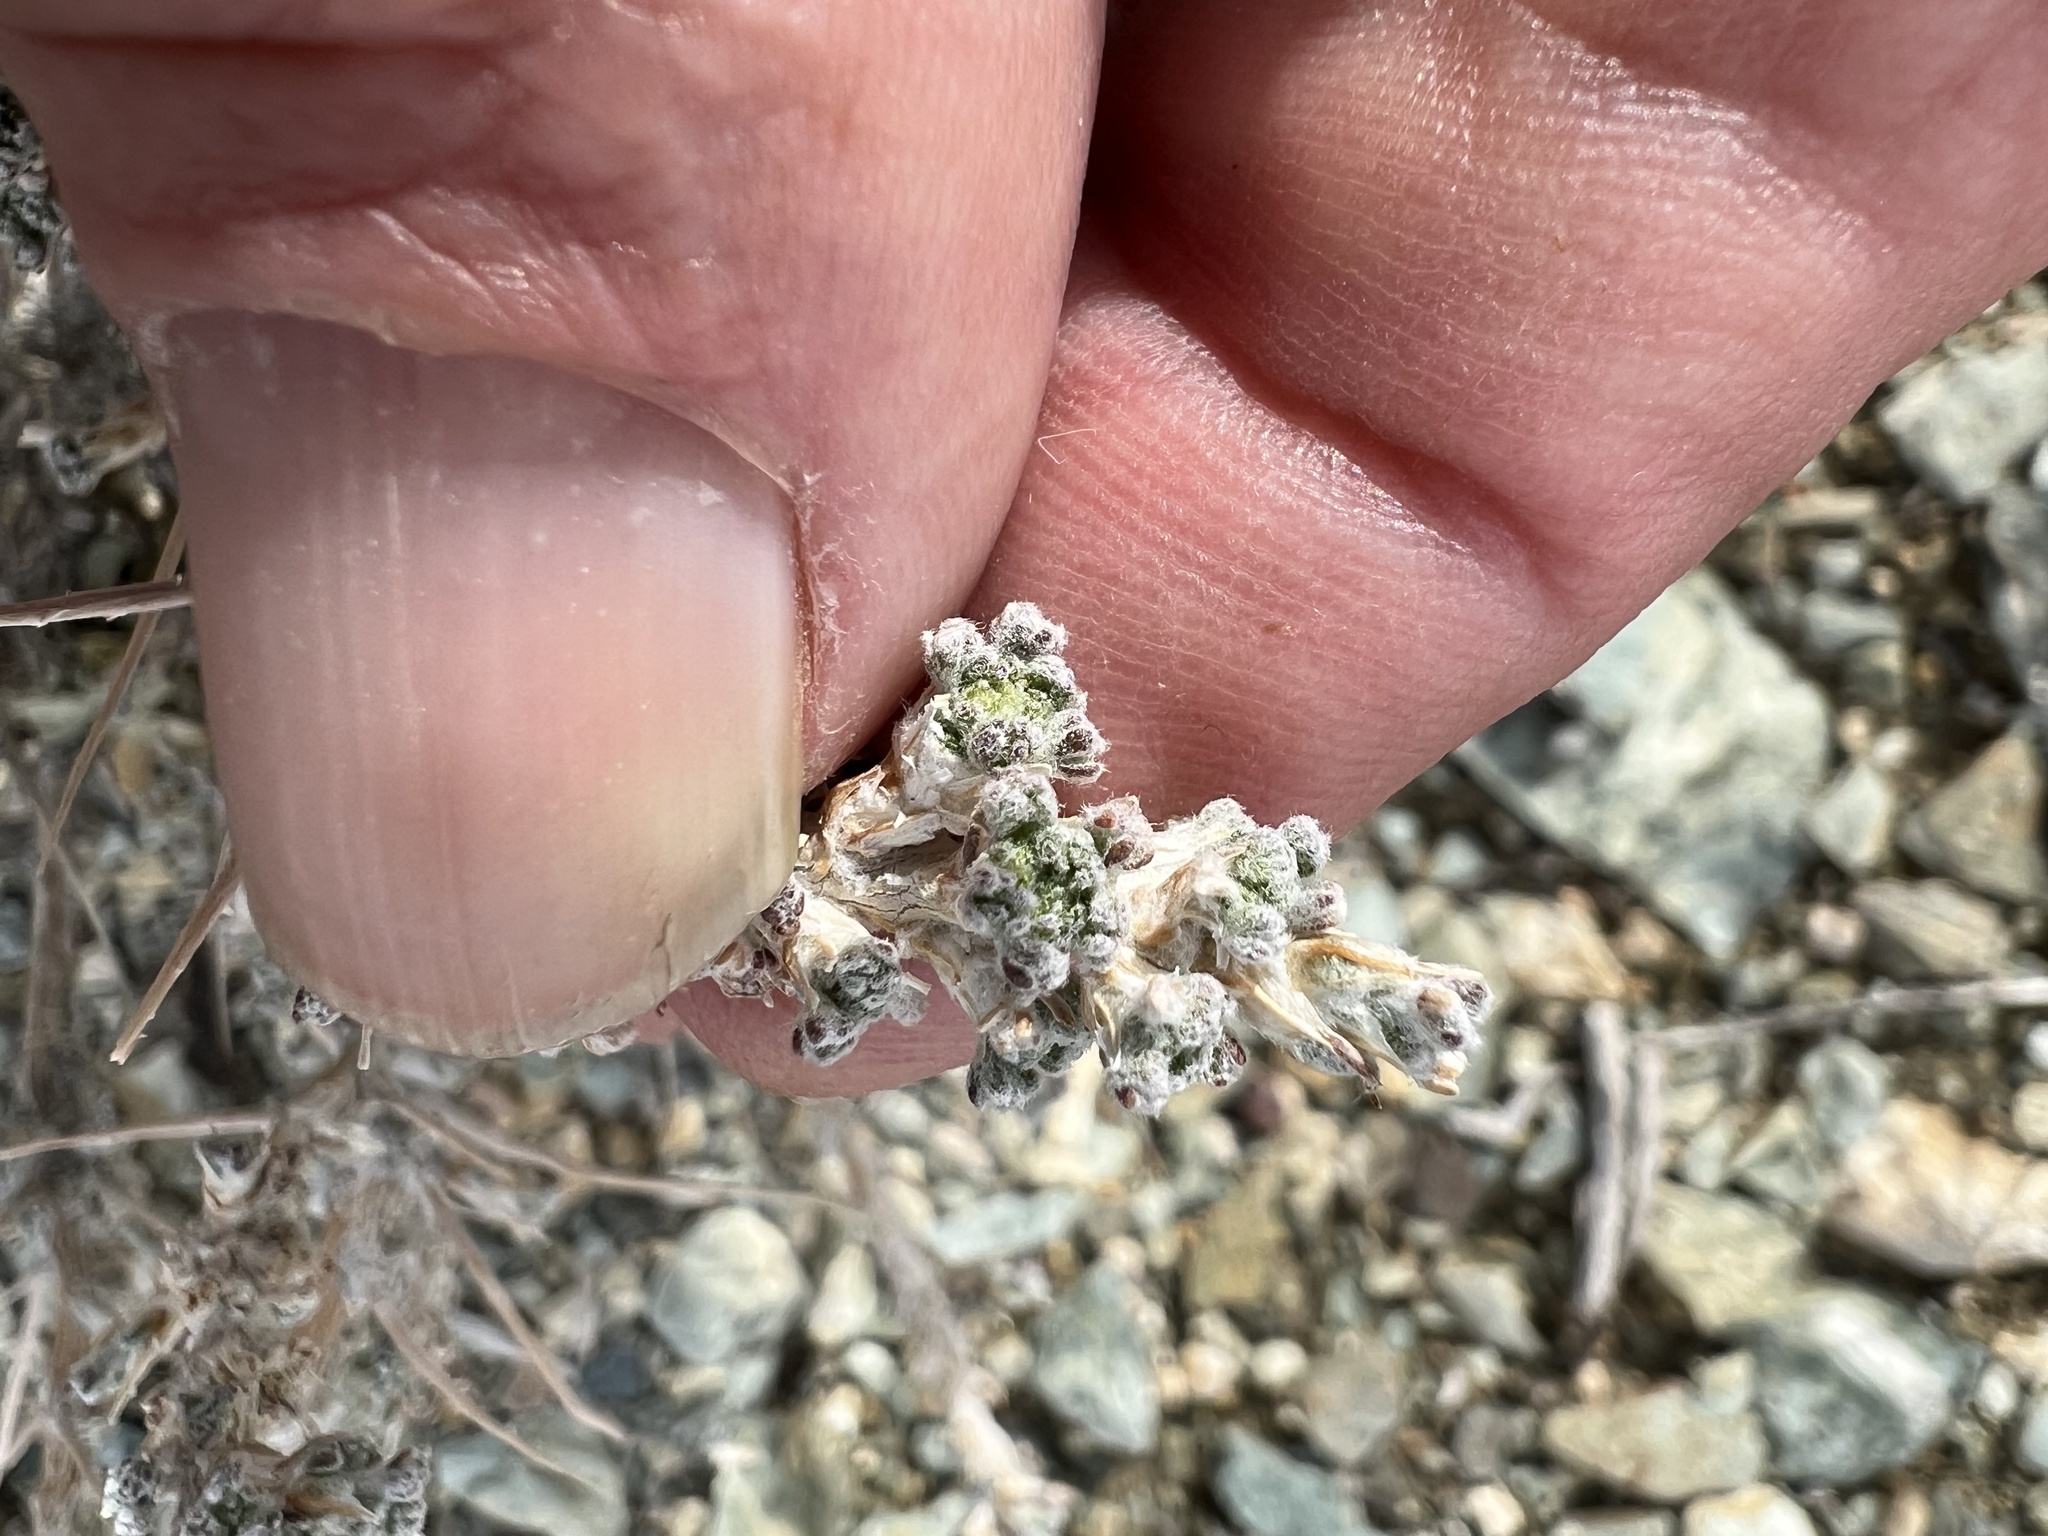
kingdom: Plantae
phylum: Tracheophyta
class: Magnoliopsida
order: Asterales
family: Asteraceae
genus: Artemisia
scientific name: Artemisia spinescens
